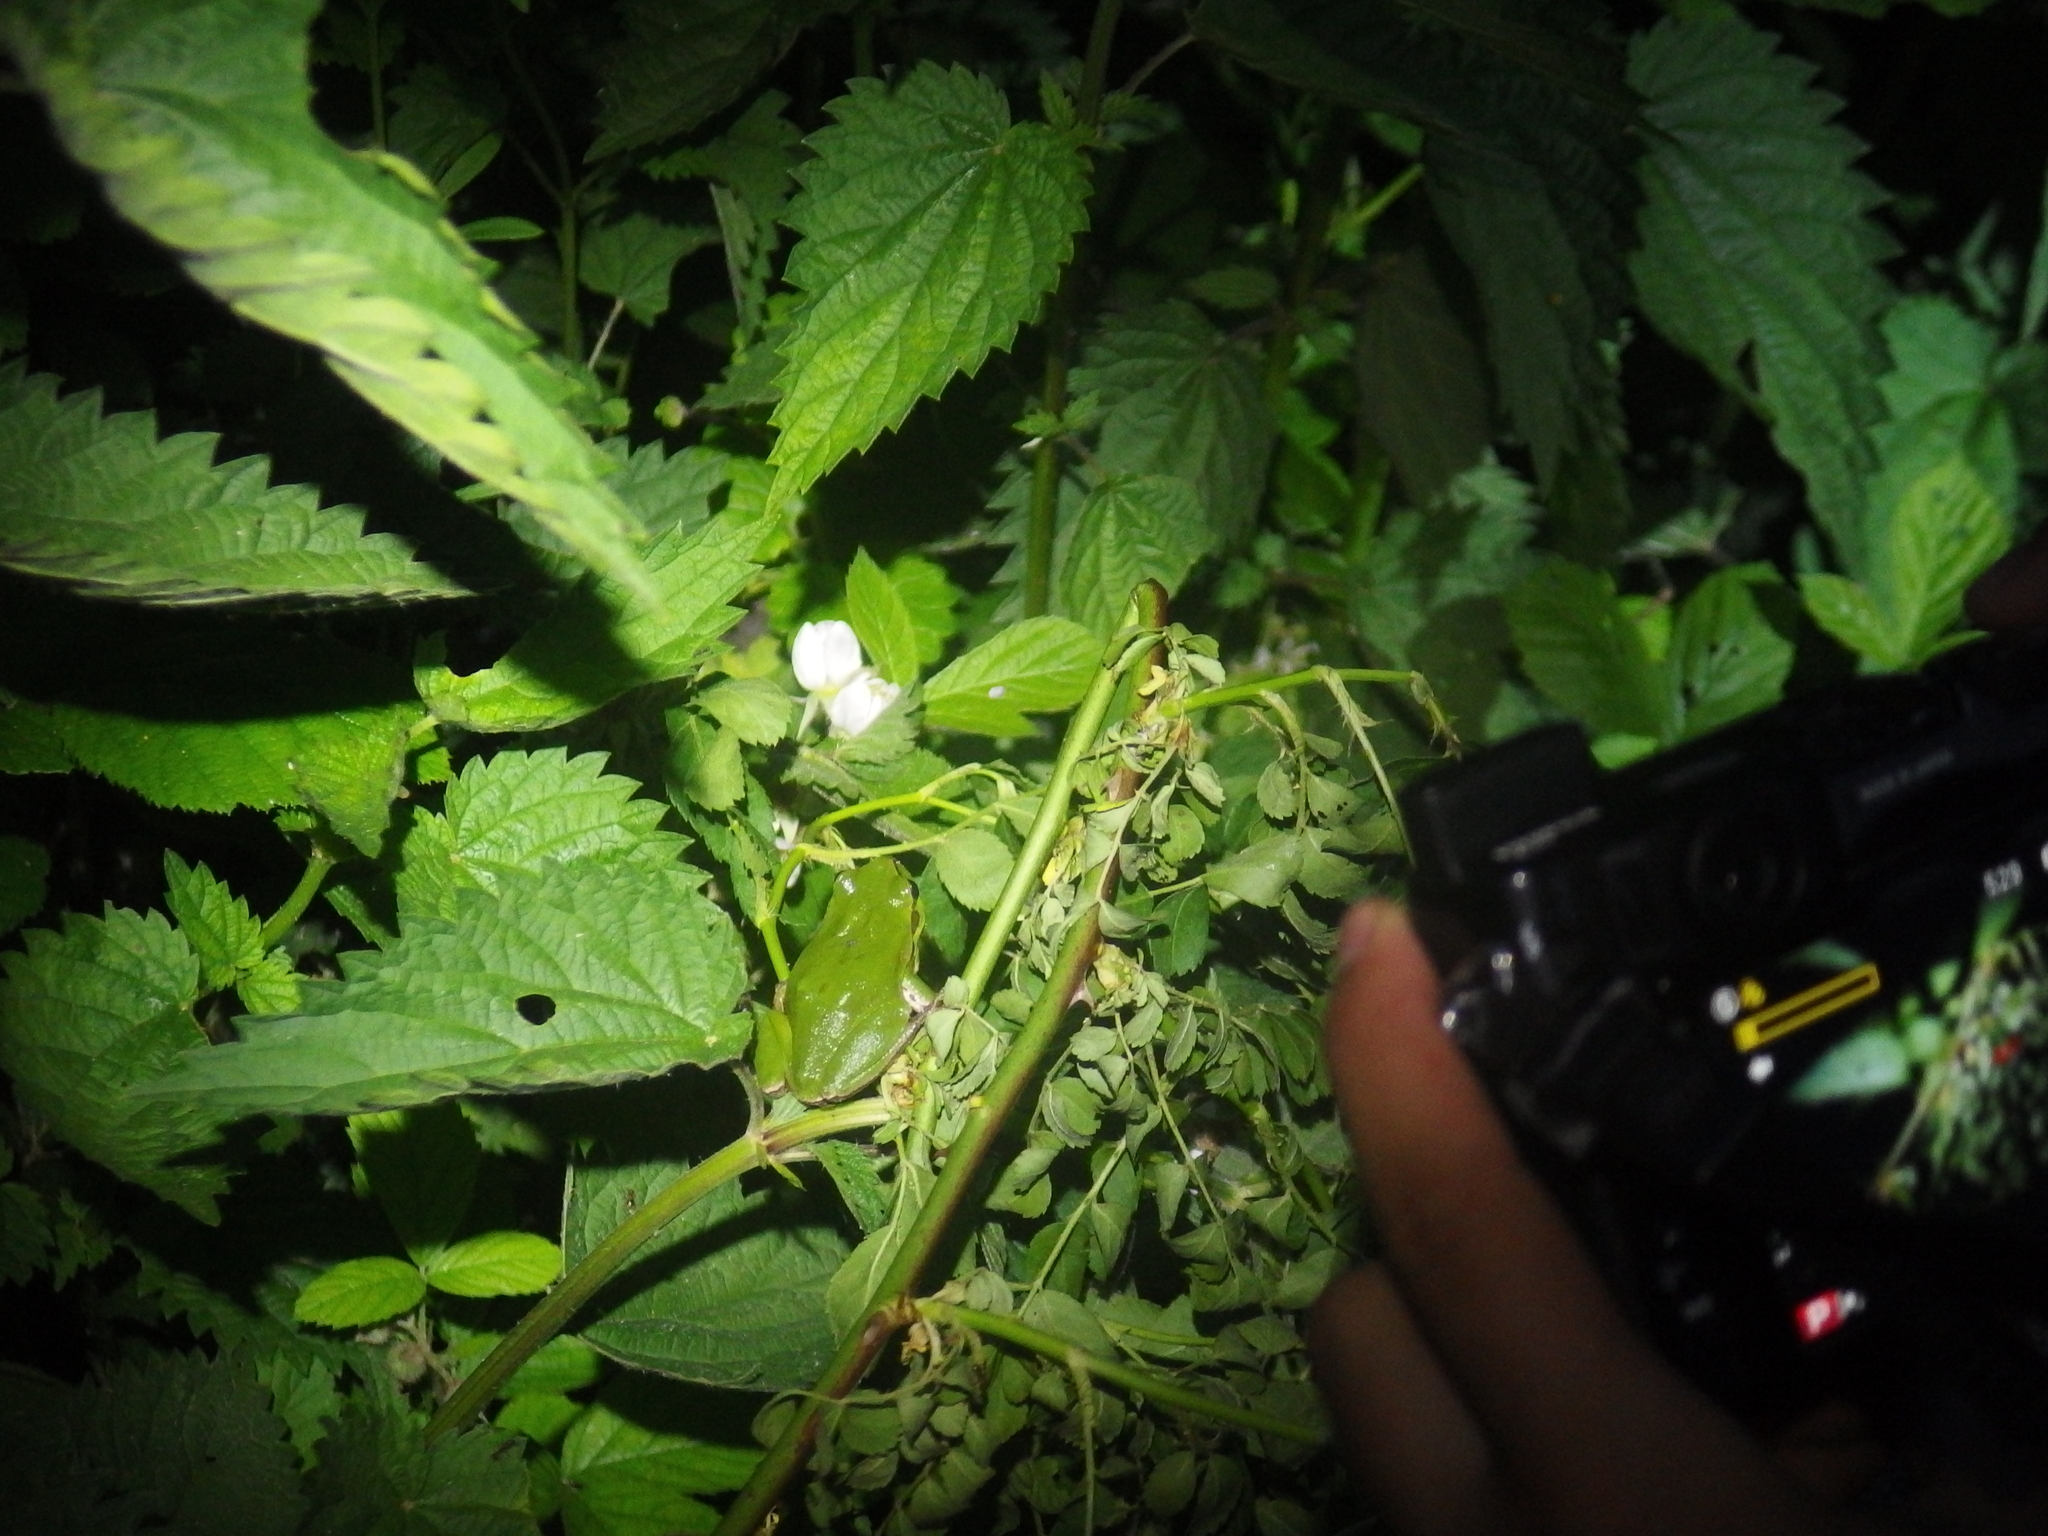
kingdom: Animalia
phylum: Chordata
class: Amphibia
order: Anura
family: Hylidae
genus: Hyla
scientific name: Hyla arborea
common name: Common tree frog
